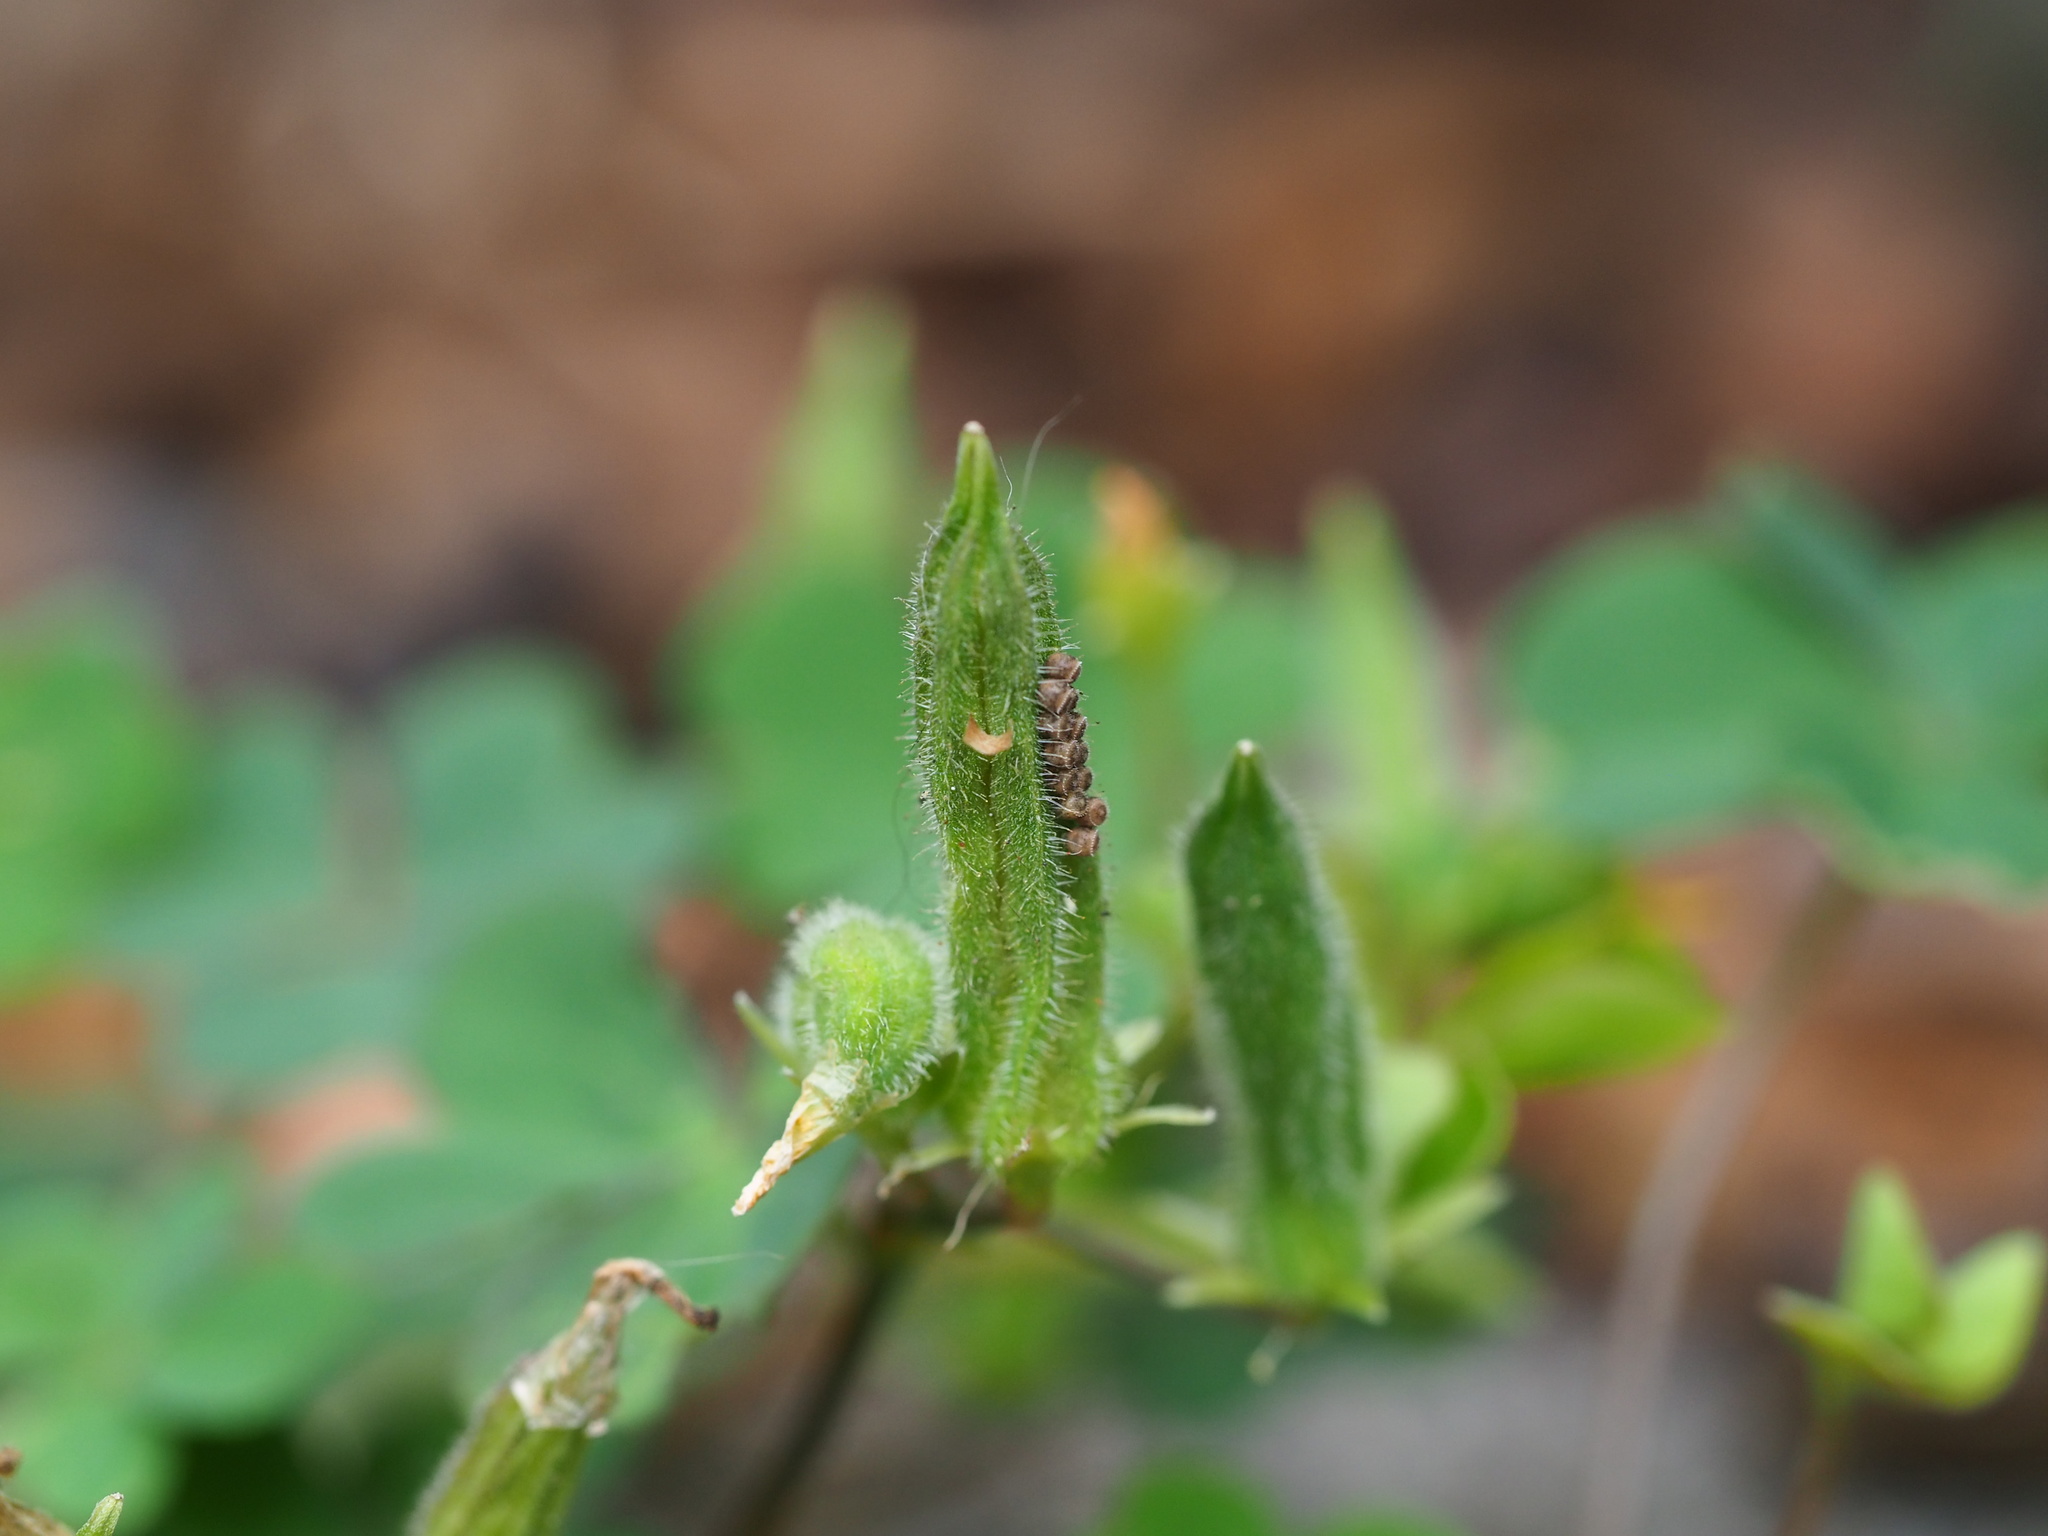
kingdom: Plantae
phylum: Tracheophyta
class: Magnoliopsida
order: Oxalidales
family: Oxalidaceae
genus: Oxalis
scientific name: Oxalis corniculata
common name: Procumbent yellow-sorrel
